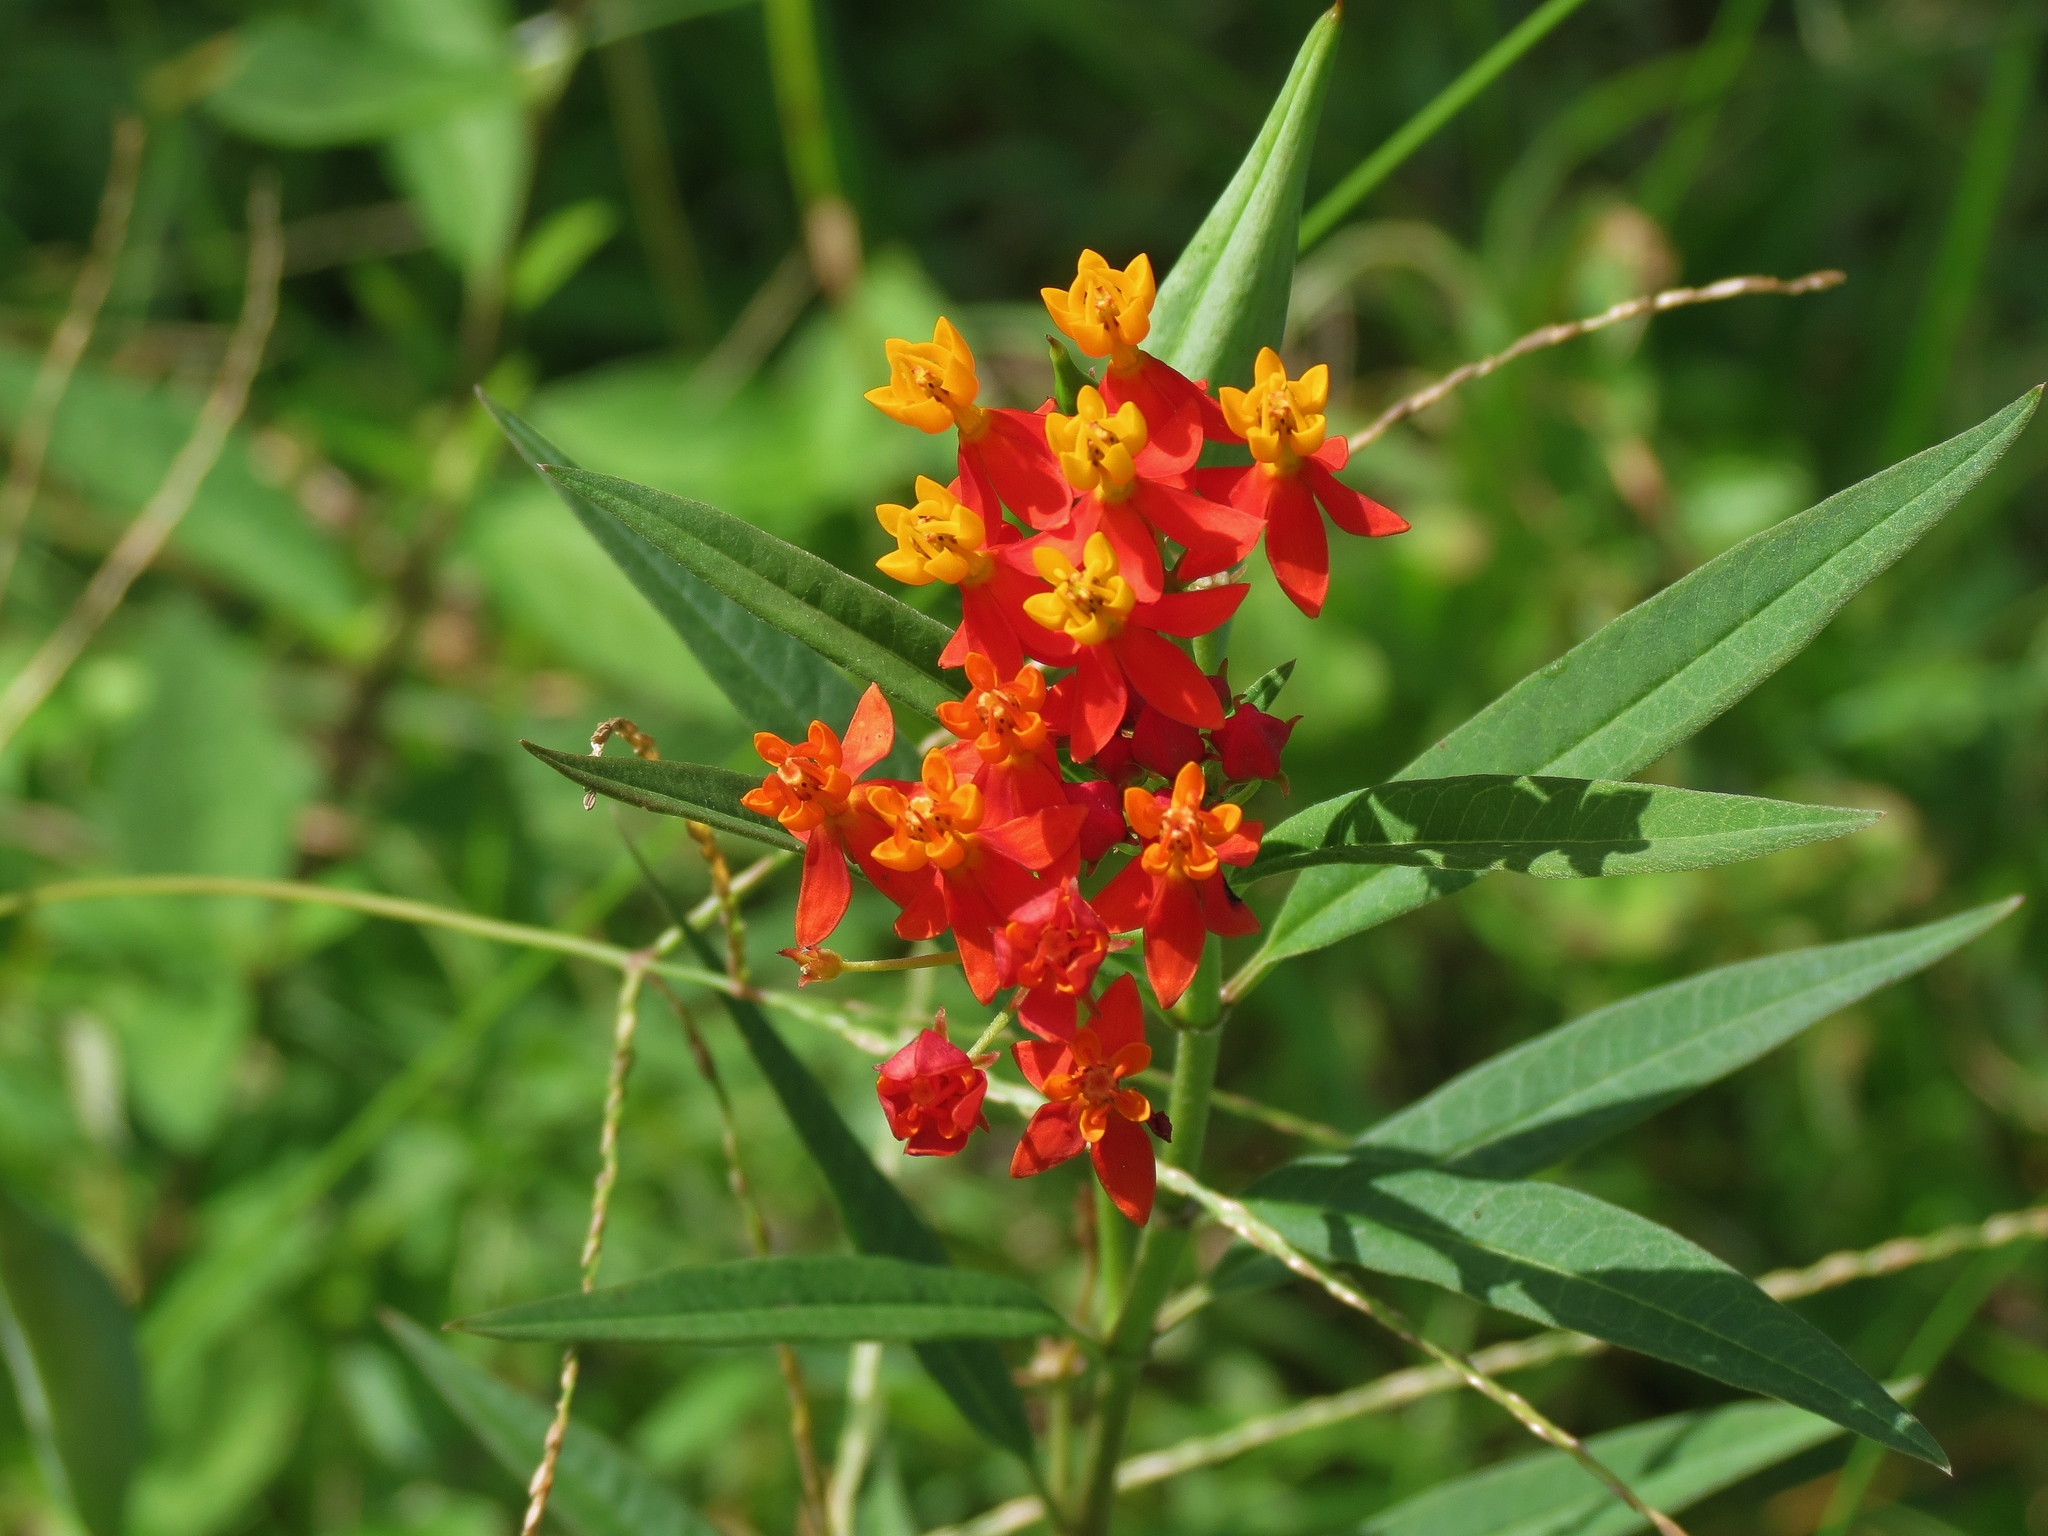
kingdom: Plantae
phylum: Tracheophyta
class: Magnoliopsida
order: Gentianales
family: Apocynaceae
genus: Asclepias
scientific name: Asclepias curassavica
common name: Bloodflower
